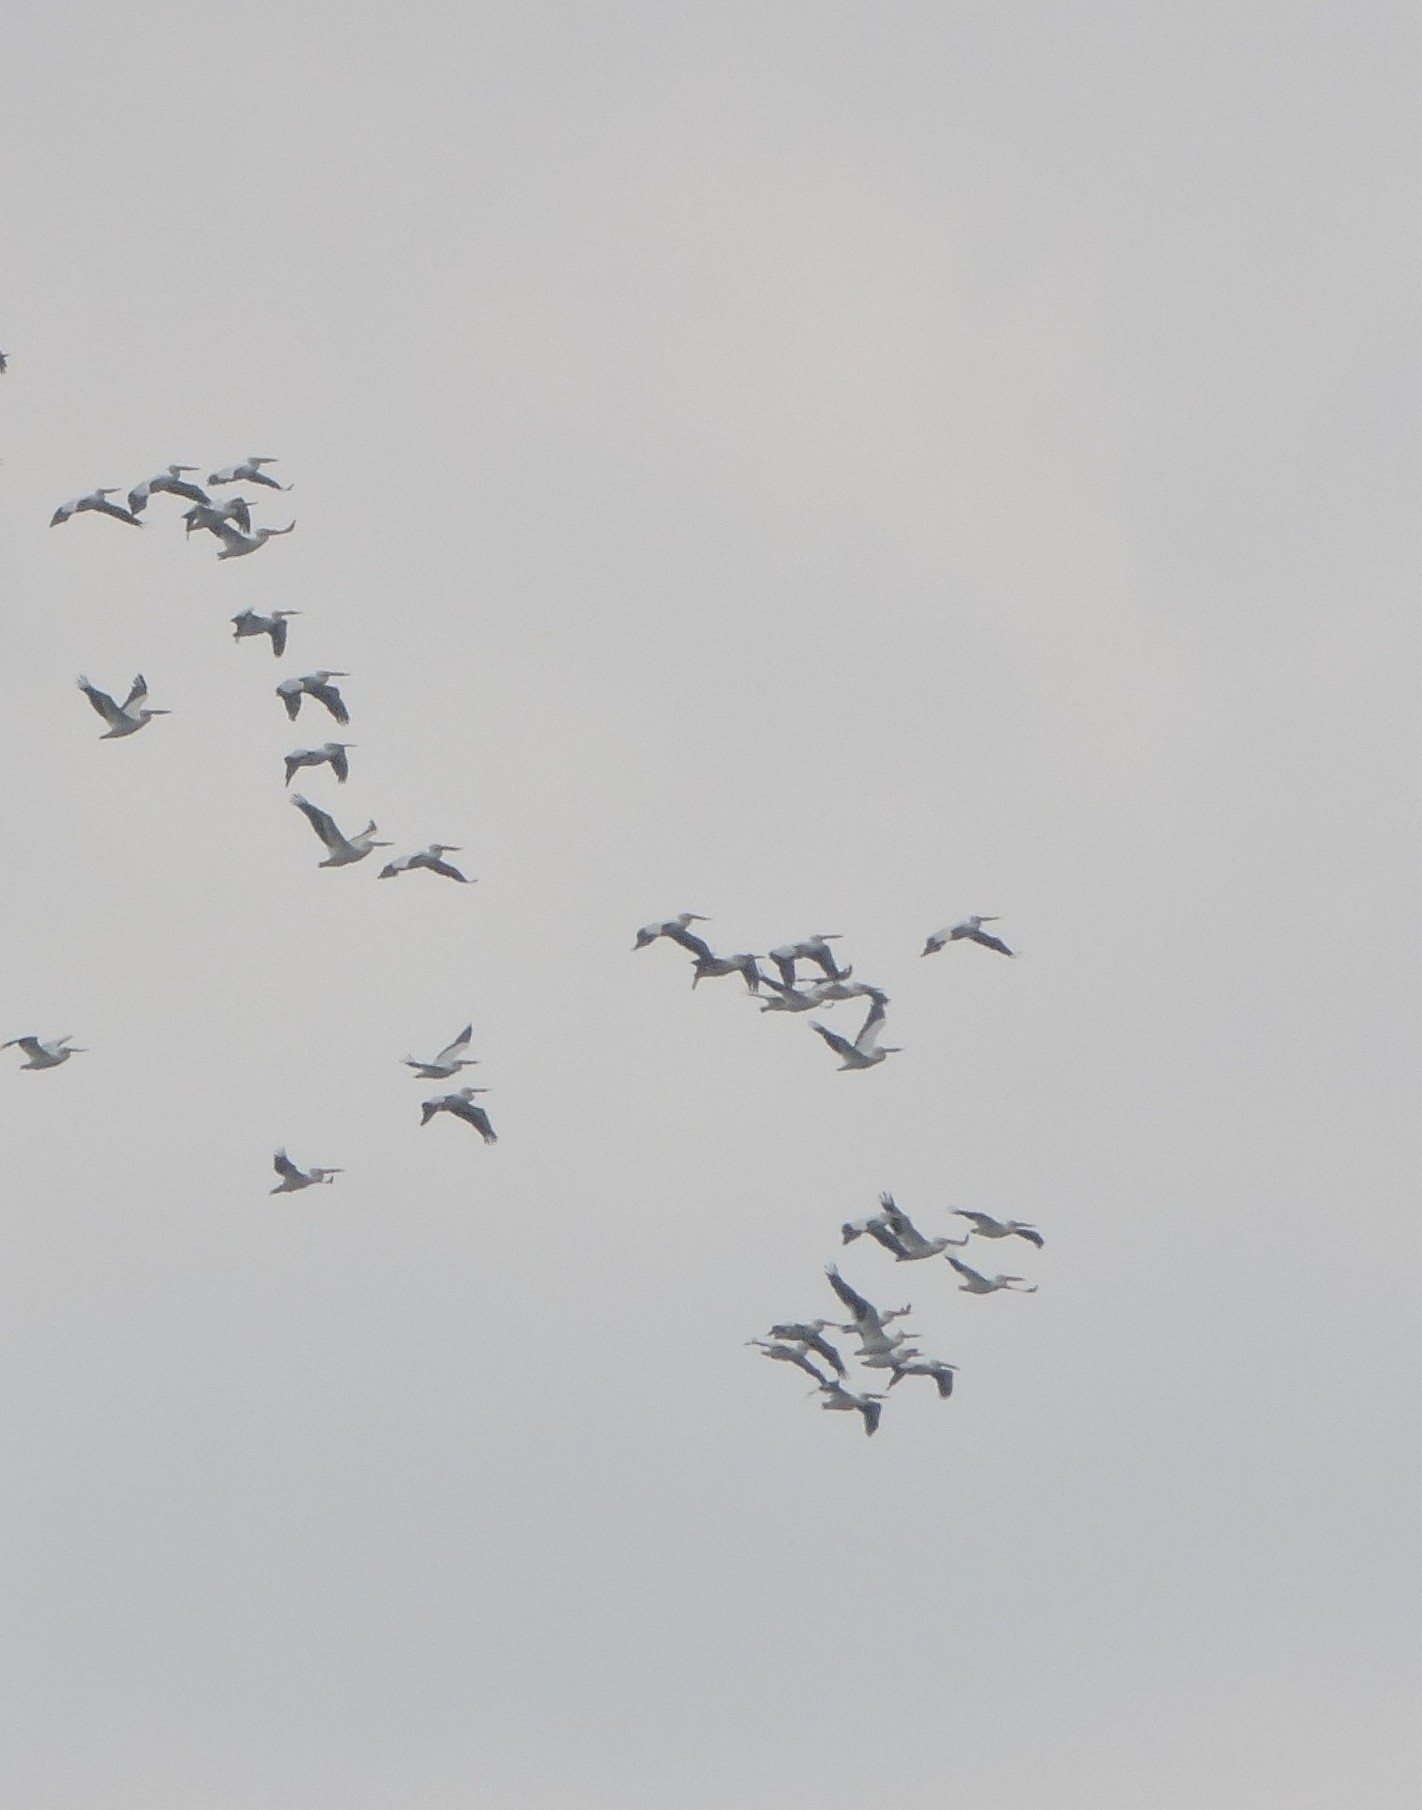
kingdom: Animalia
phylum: Chordata
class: Aves
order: Pelecaniformes
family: Pelecanidae
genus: Pelecanus
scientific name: Pelecanus erythrorhynchos
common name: American white pelican
